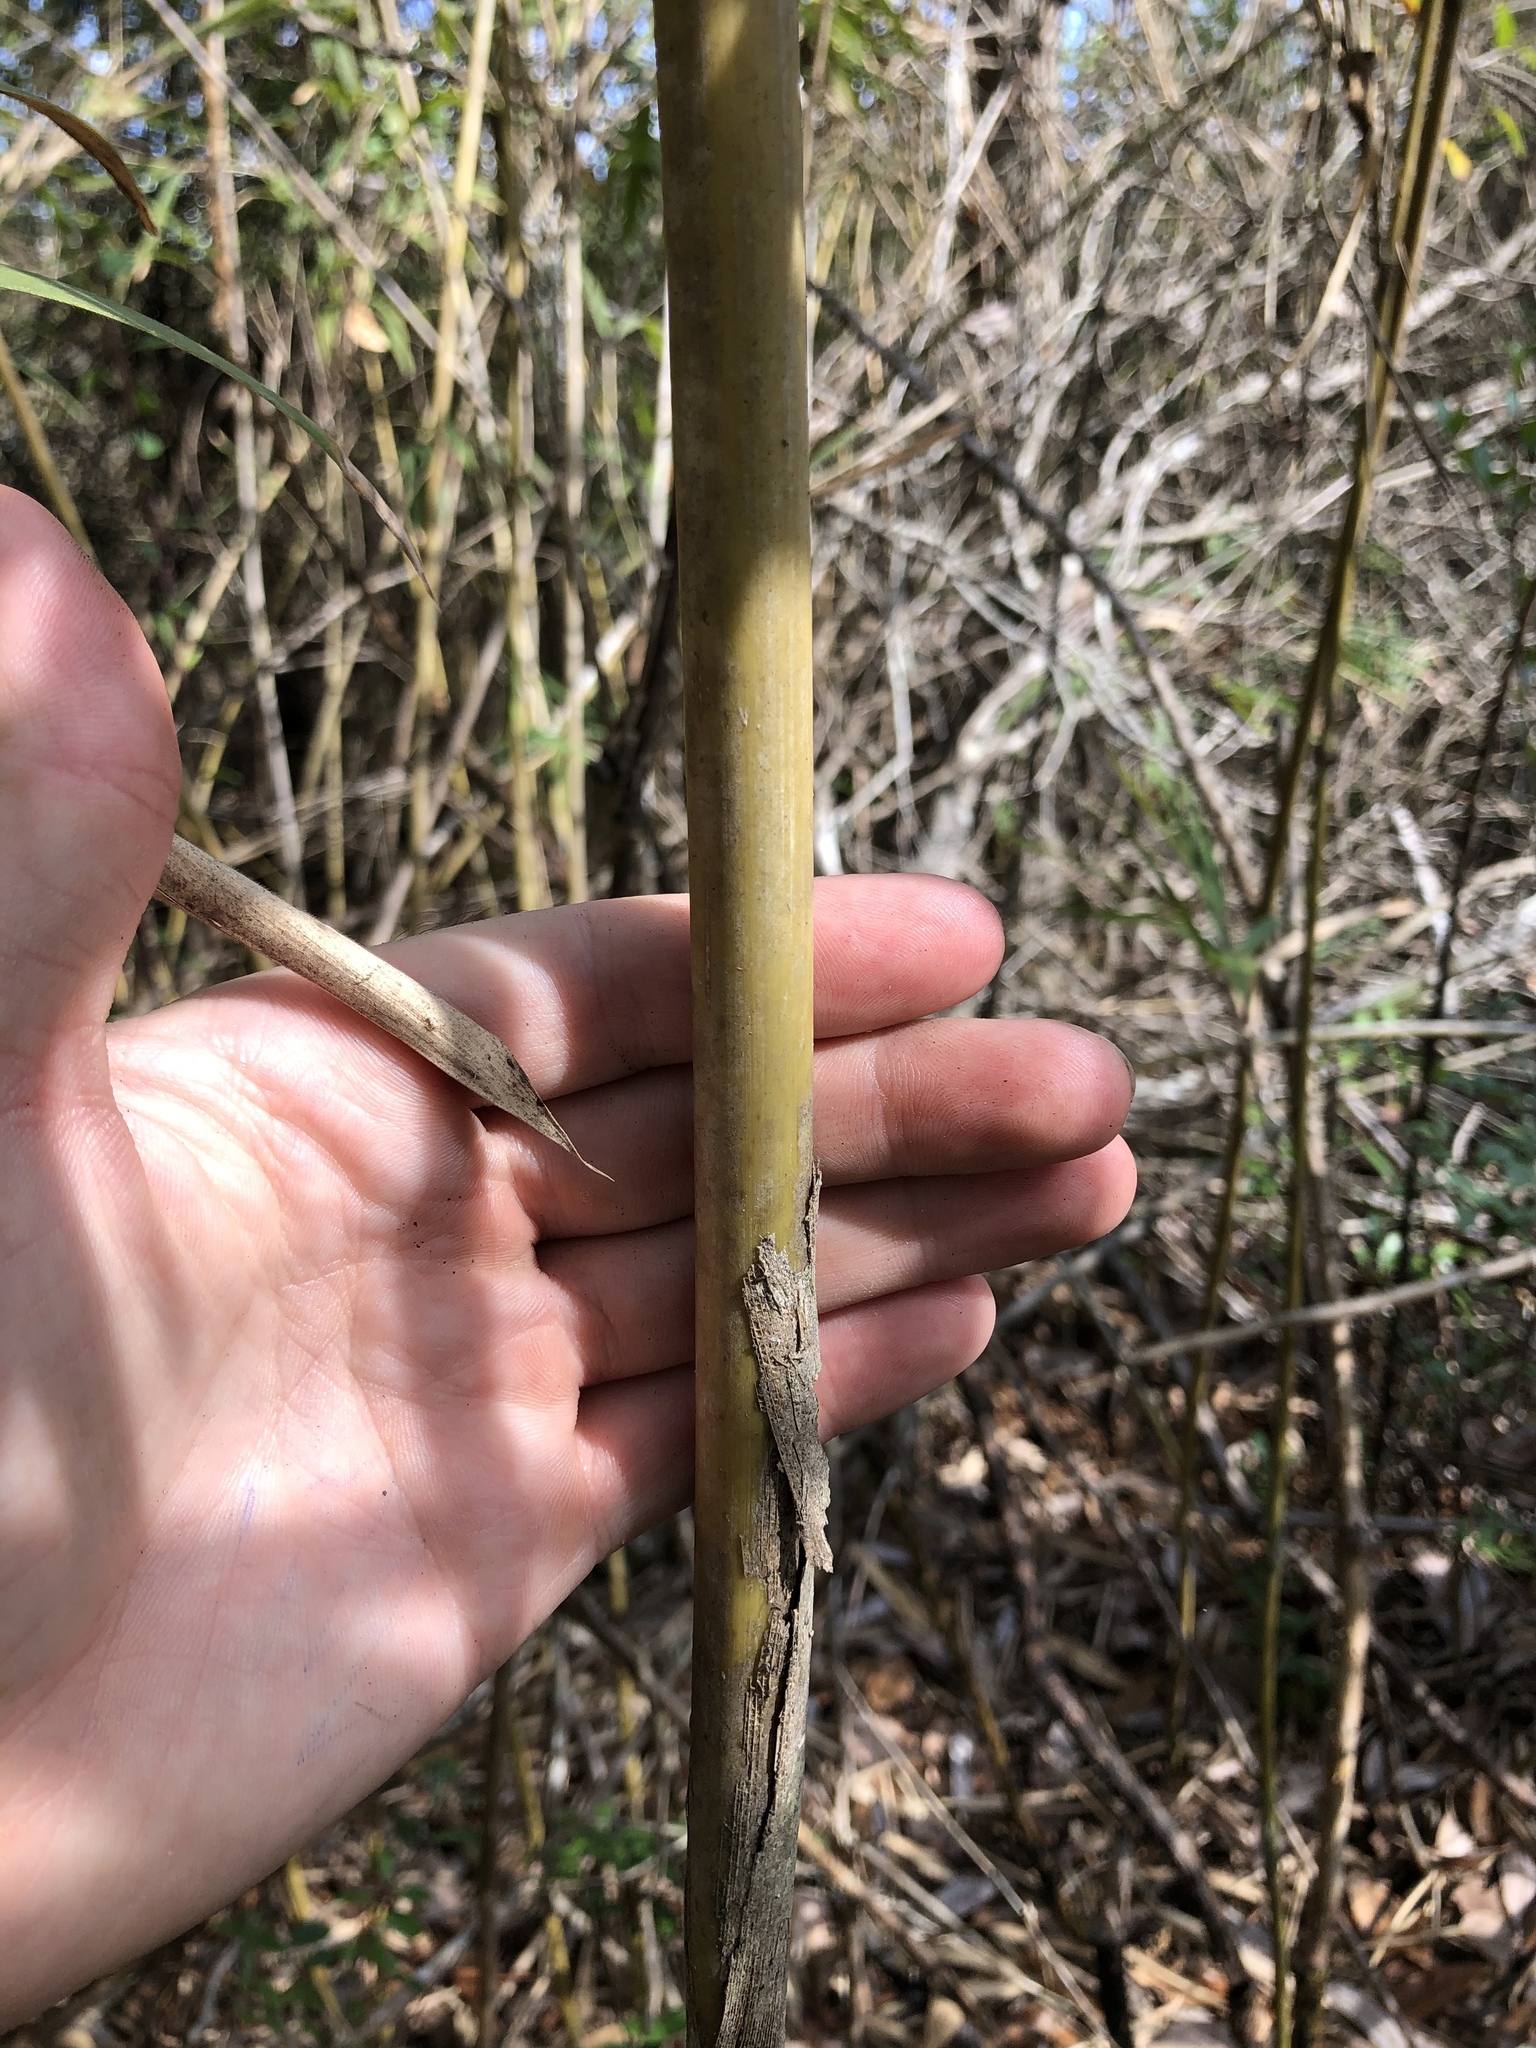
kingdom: Plantae
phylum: Tracheophyta
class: Liliopsida
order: Poales
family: Poaceae
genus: Arundinaria
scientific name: Arundinaria tecta
